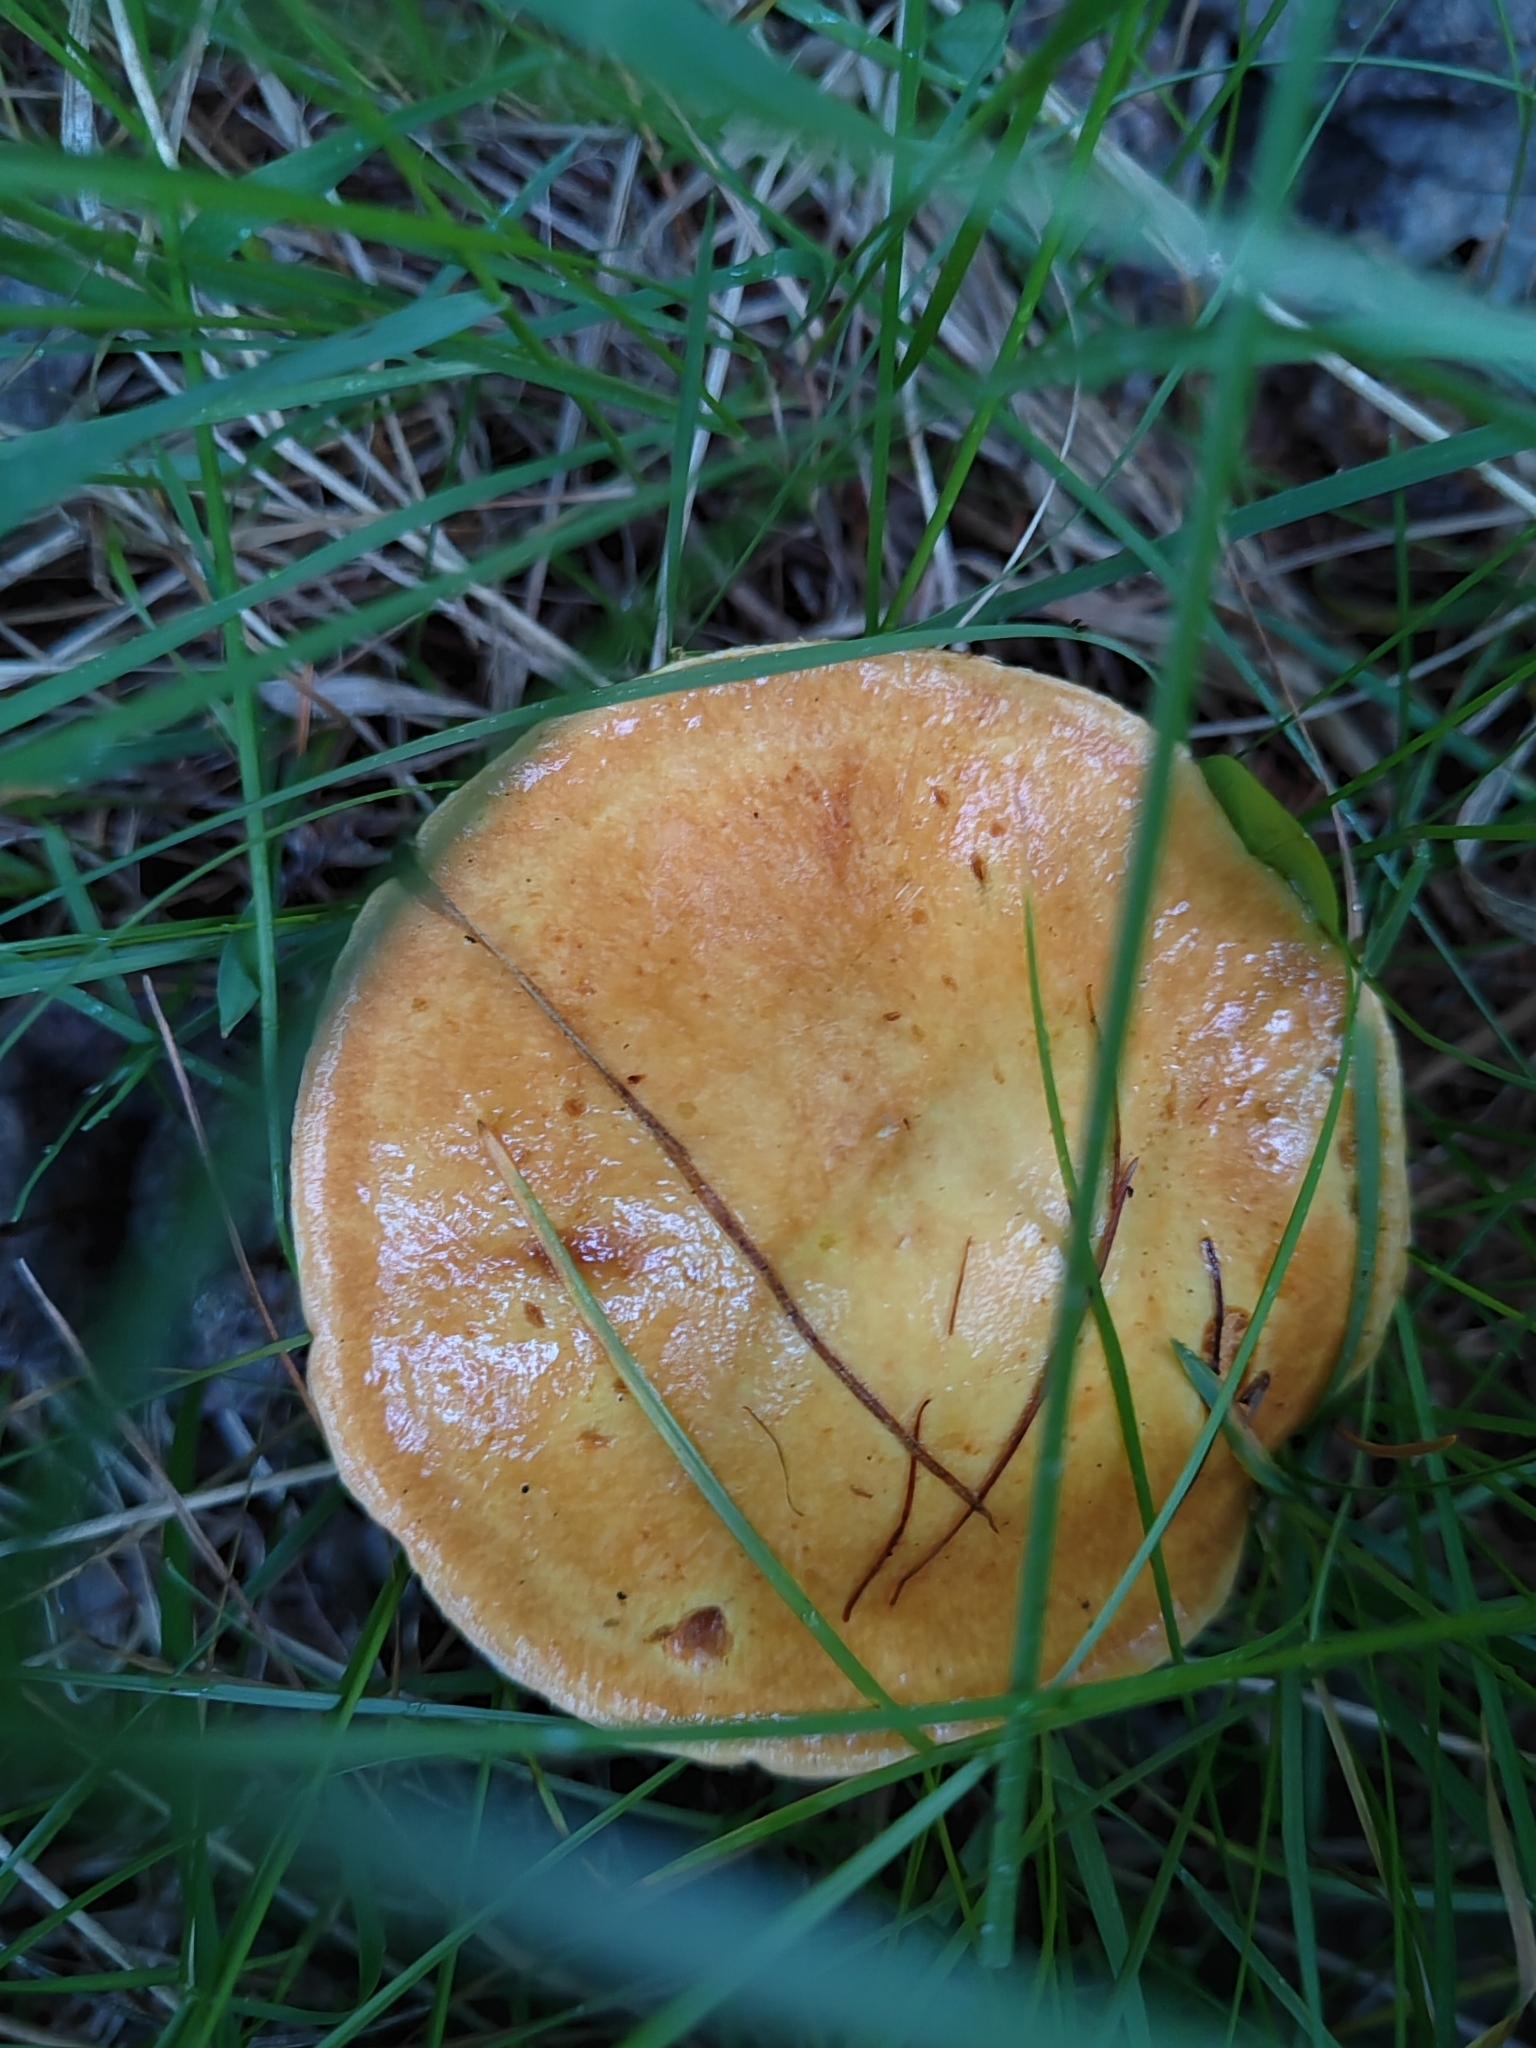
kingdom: Fungi
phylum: Basidiomycota
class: Agaricomycetes
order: Boletales
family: Suillaceae
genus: Suillus
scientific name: Suillus grevillei
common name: Larch bolete
